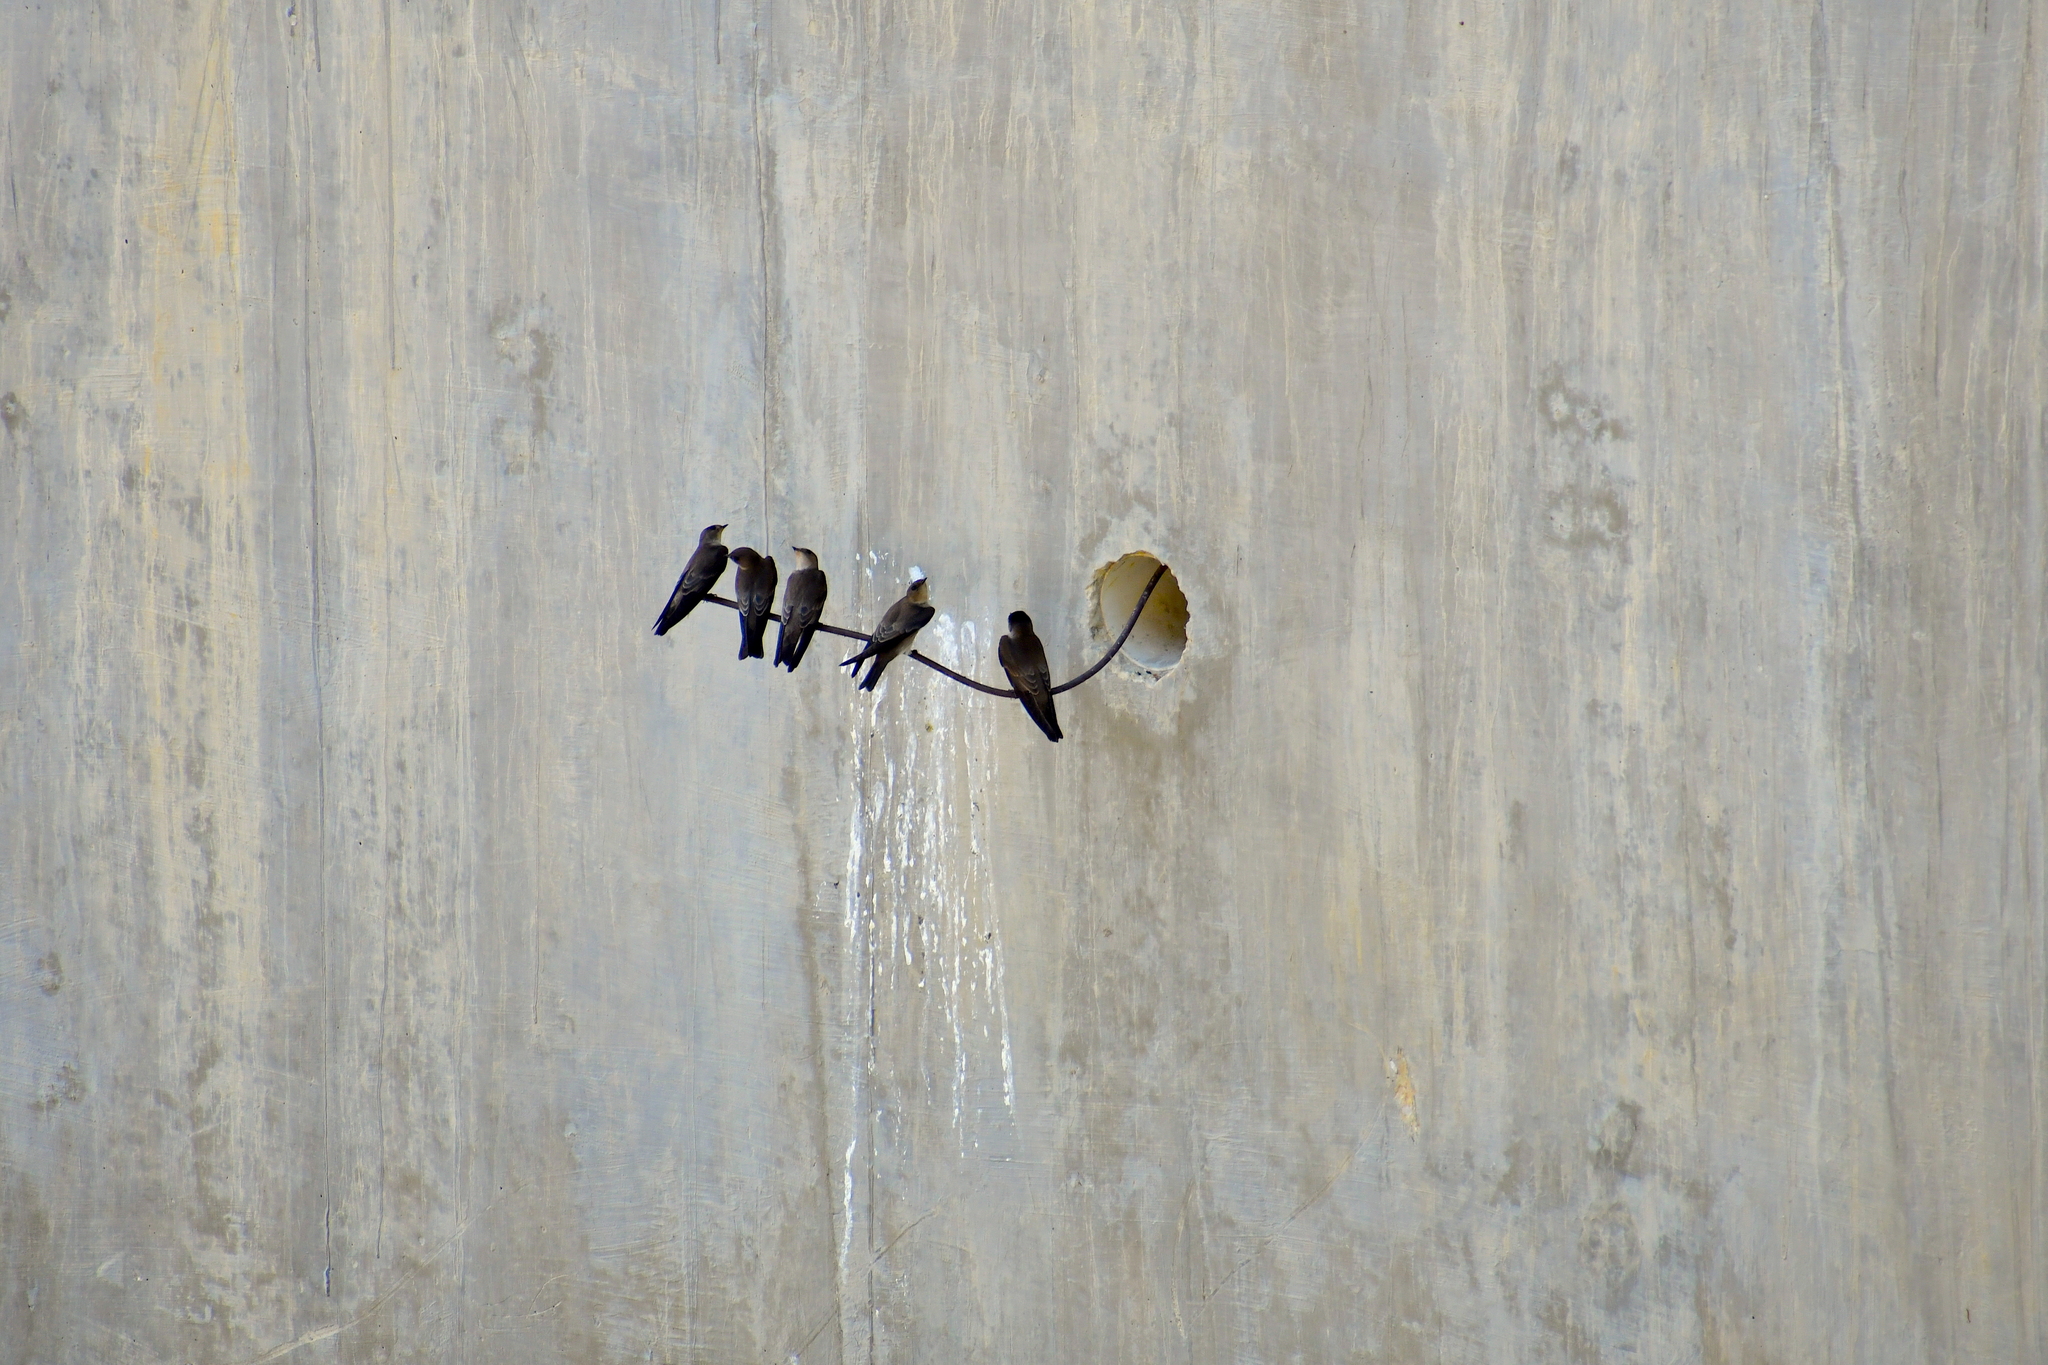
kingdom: Animalia
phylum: Chordata
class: Aves
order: Passeriformes
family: Hirundinidae
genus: Stelgidopteryx
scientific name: Stelgidopteryx serripennis
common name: Northern rough-winged swallow
